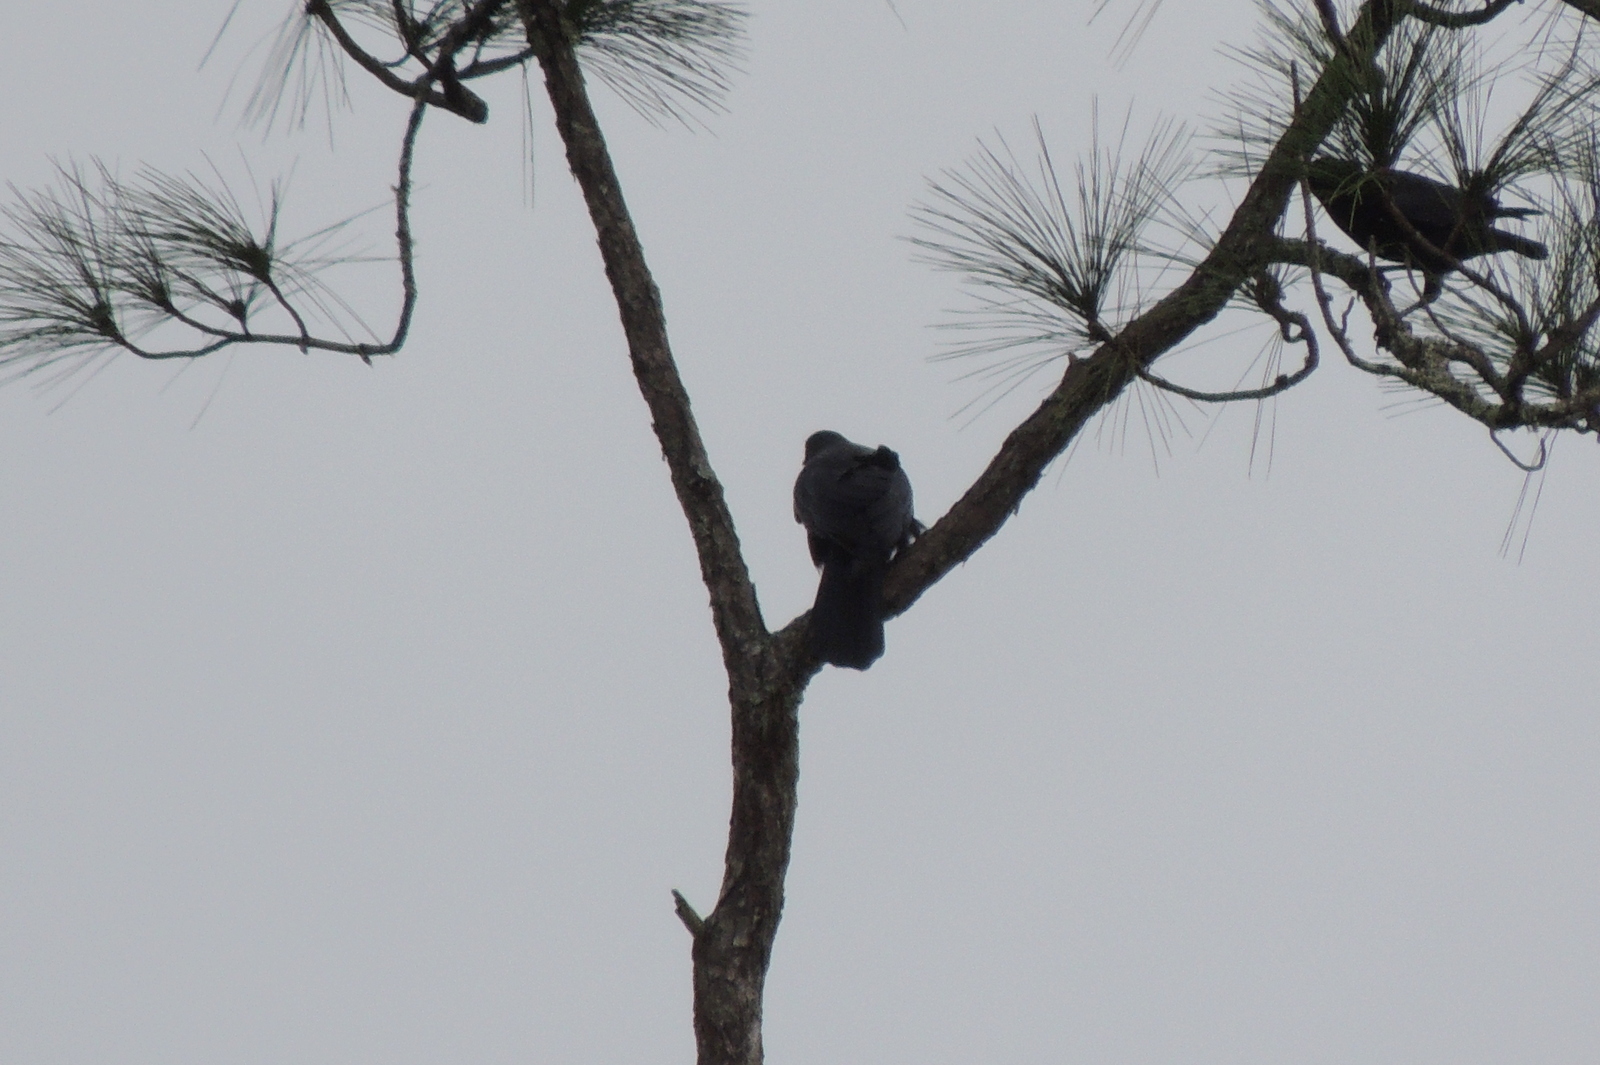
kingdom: Animalia
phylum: Chordata
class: Aves
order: Passeriformes
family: Corvidae
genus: Corvus
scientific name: Corvus
